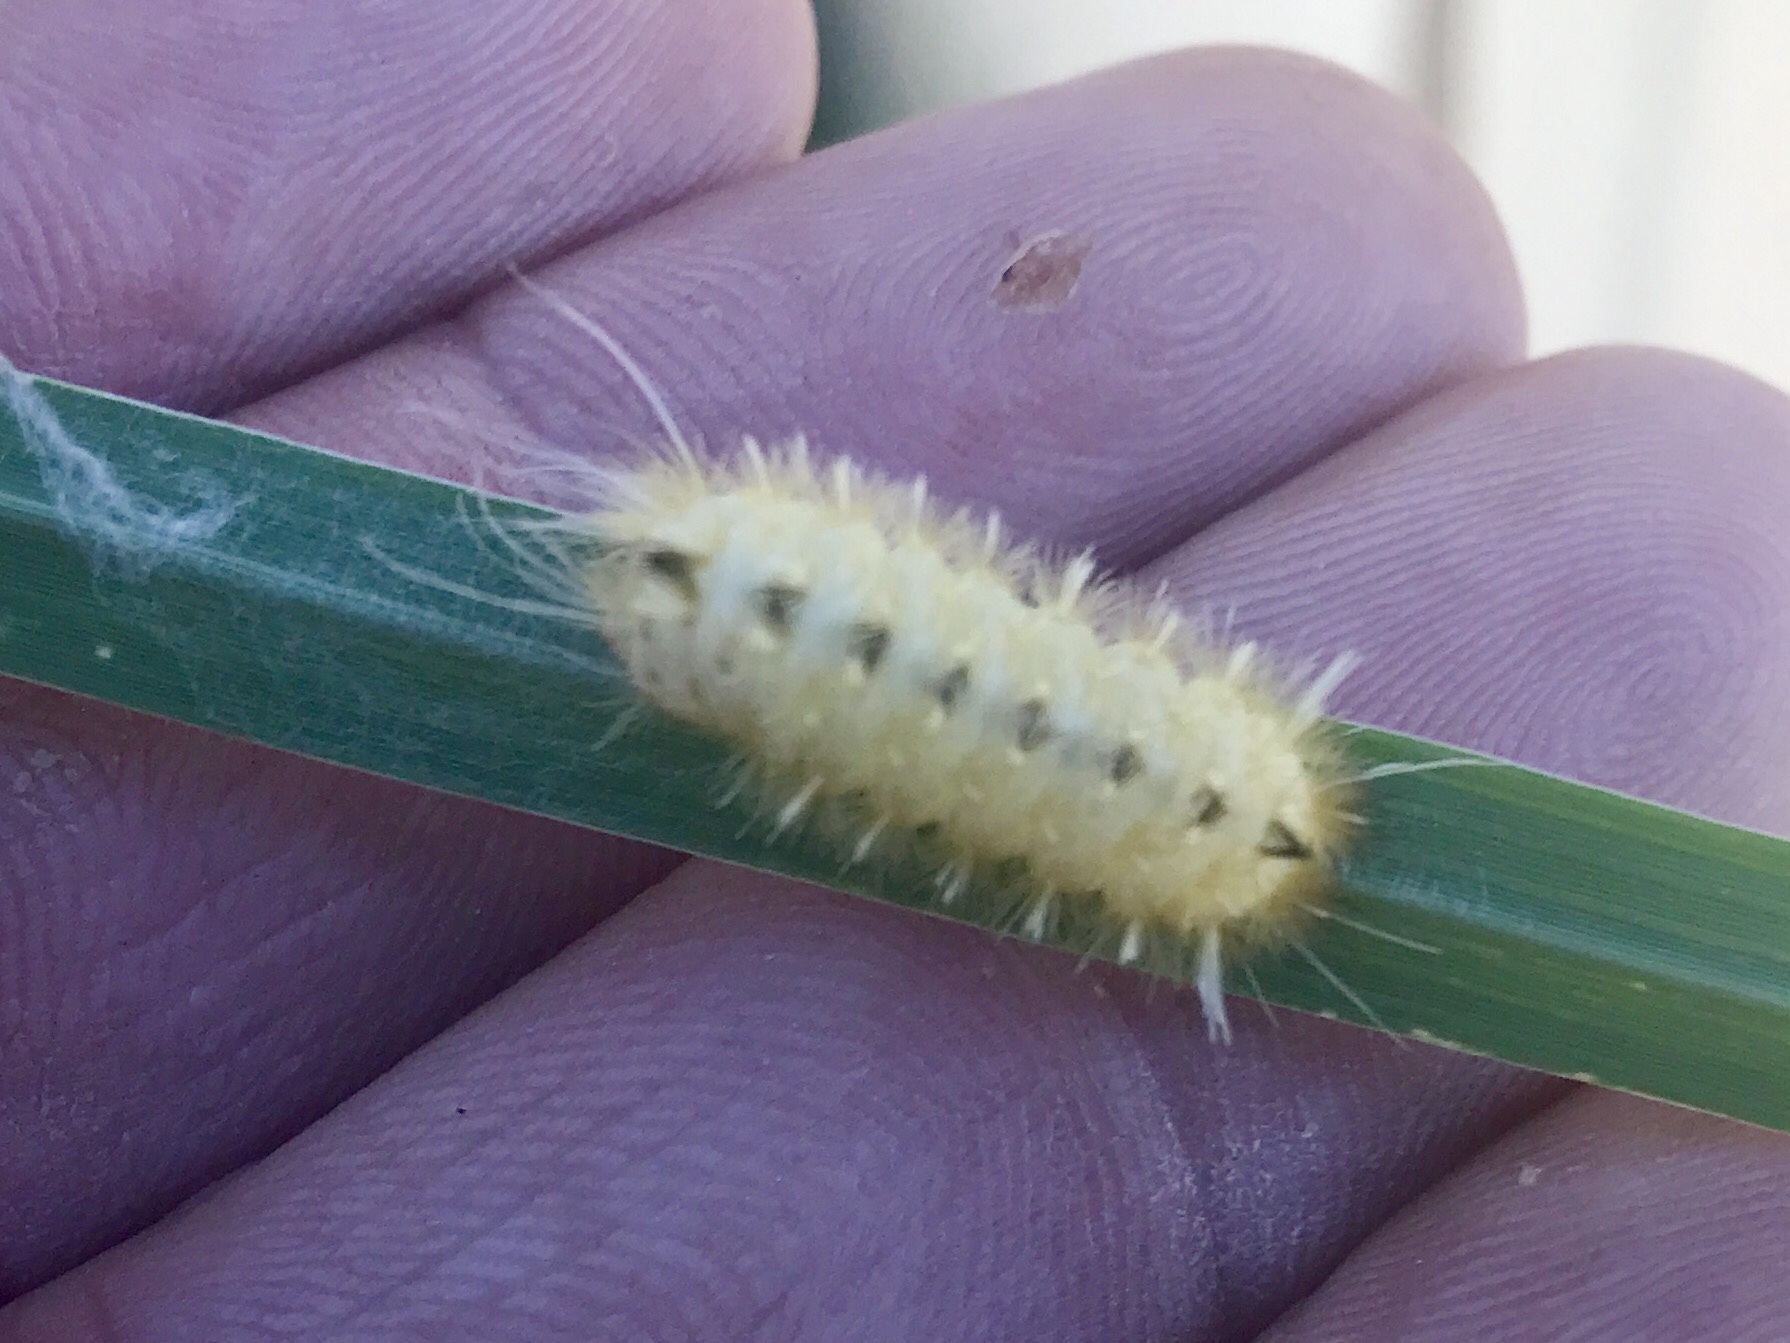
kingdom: Animalia
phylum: Arthropoda
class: Insecta
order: Lepidoptera
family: Erebidae
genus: Pygarctia
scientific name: Pygarctia roseicapitis
